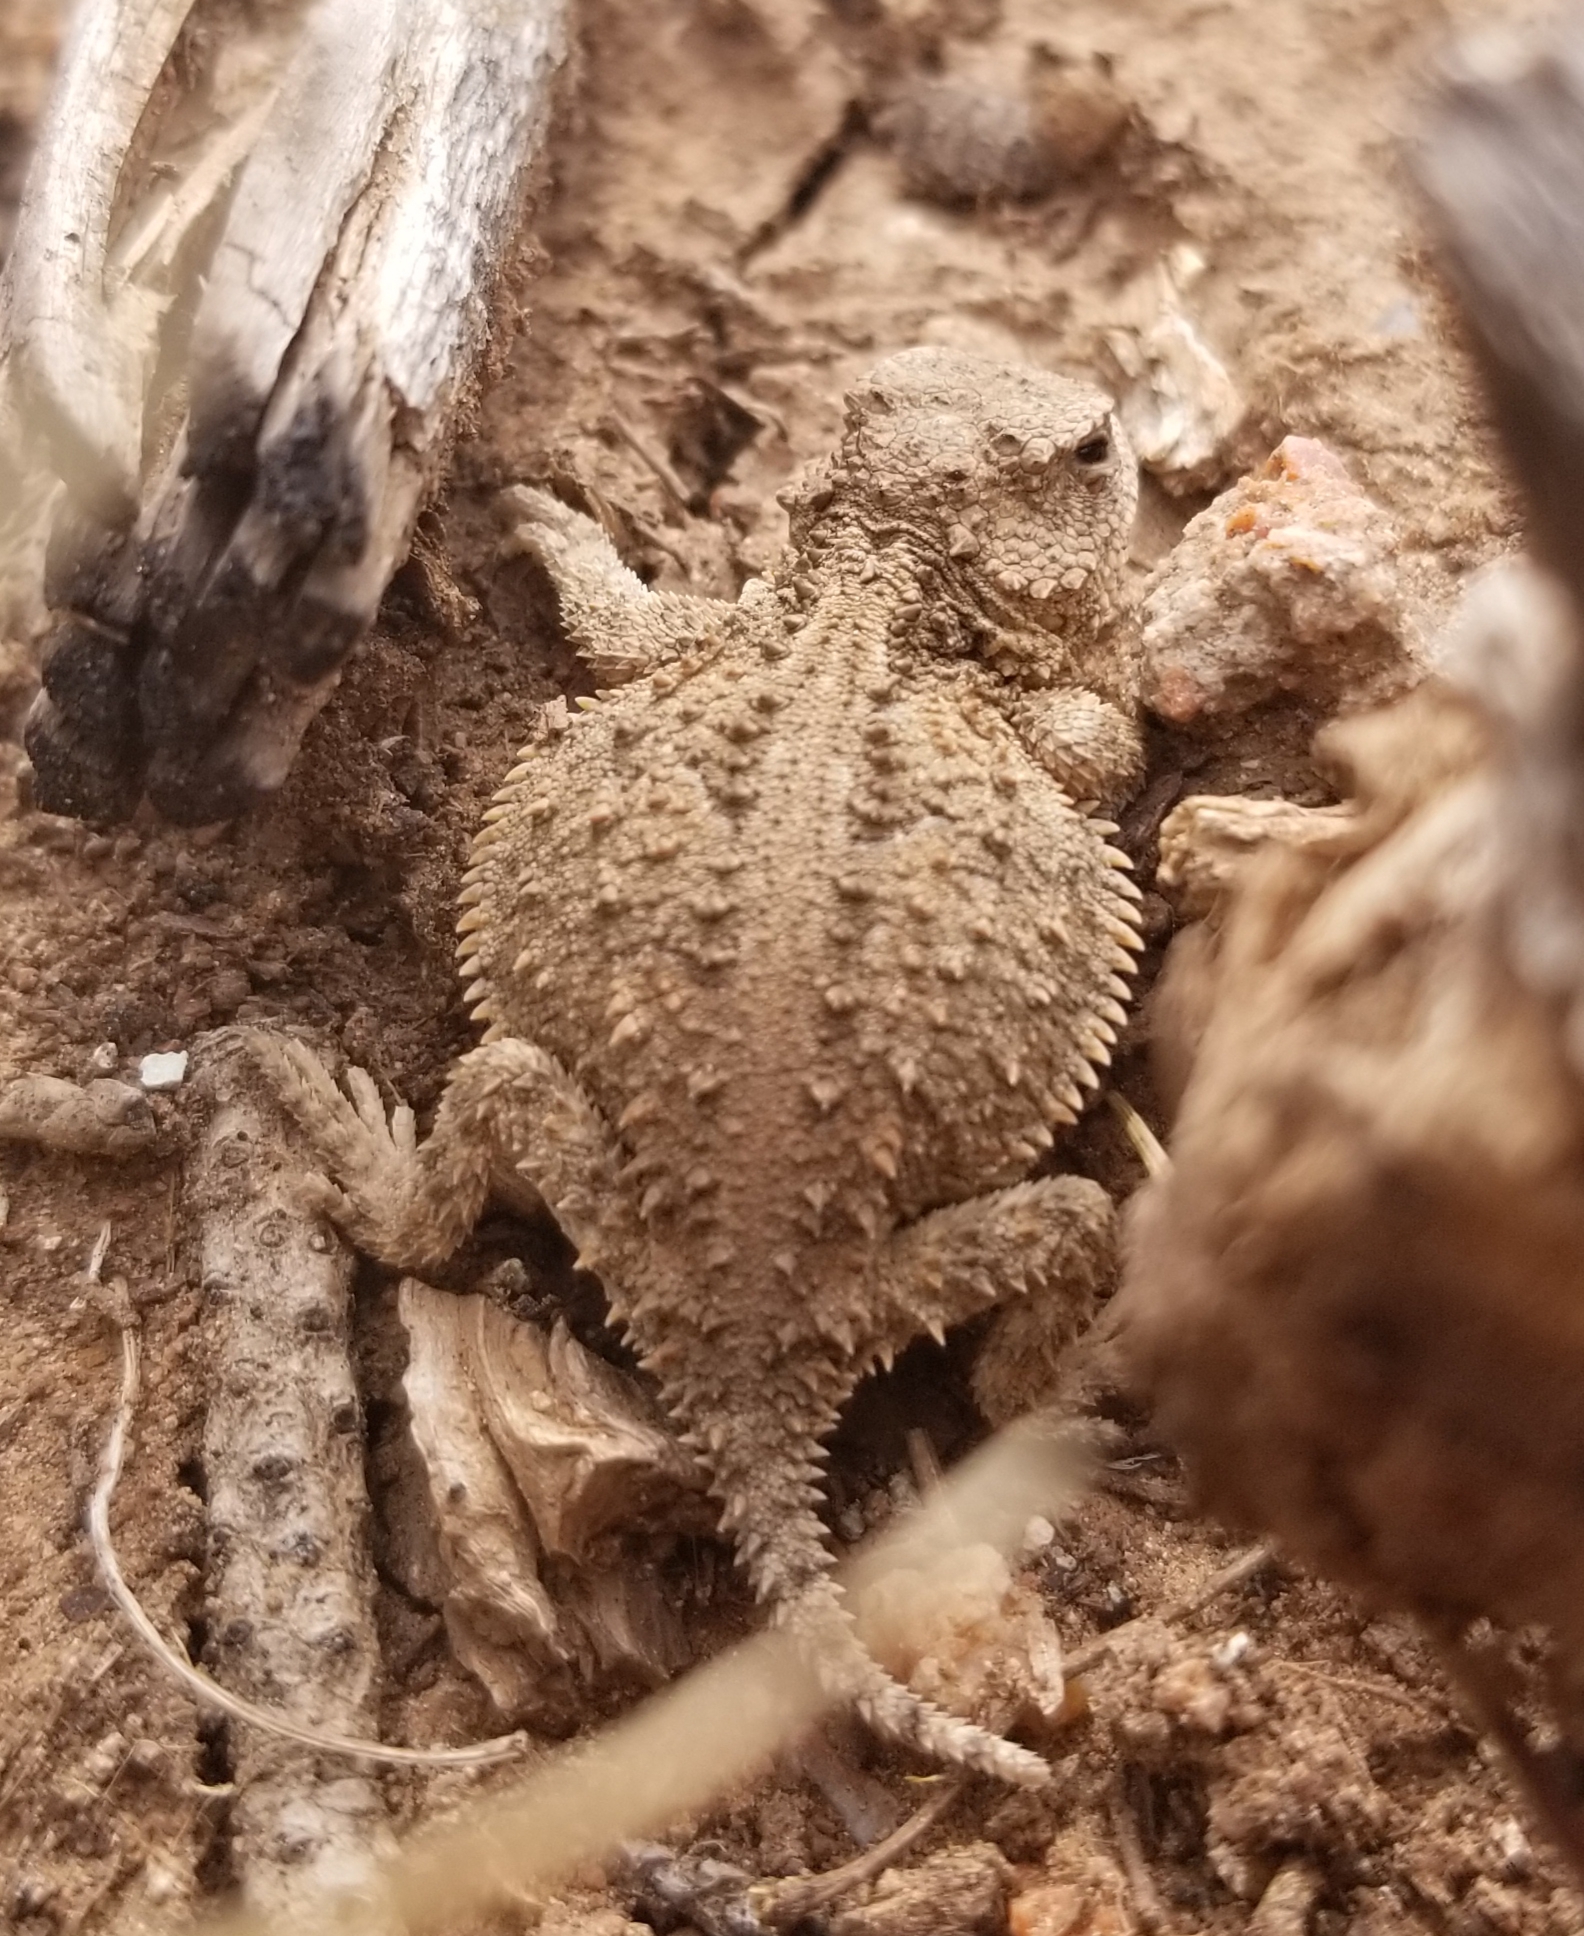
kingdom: Animalia
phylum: Chordata
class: Squamata
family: Phrynosomatidae
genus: Phrynosoma
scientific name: Phrynosoma hernandesi
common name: Greater short-horned lizard
